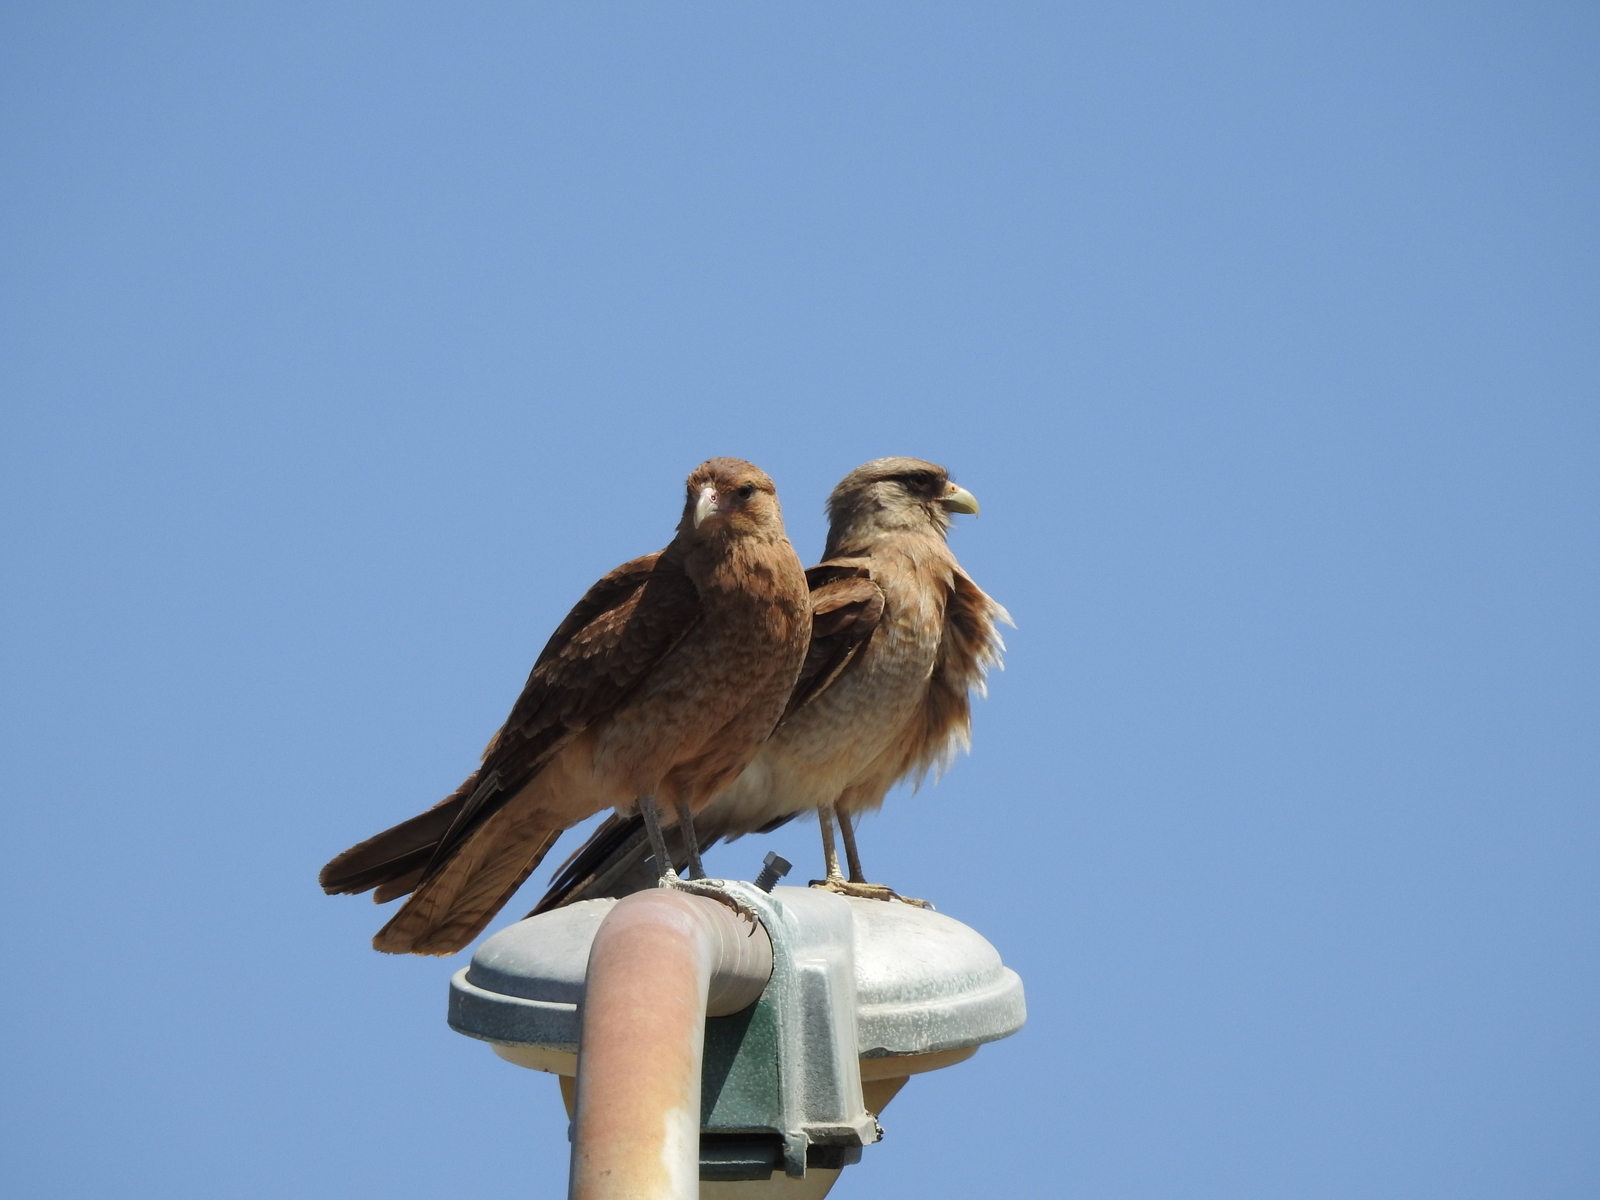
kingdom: Animalia
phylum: Chordata
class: Aves
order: Falconiformes
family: Falconidae
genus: Daptrius
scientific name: Daptrius
